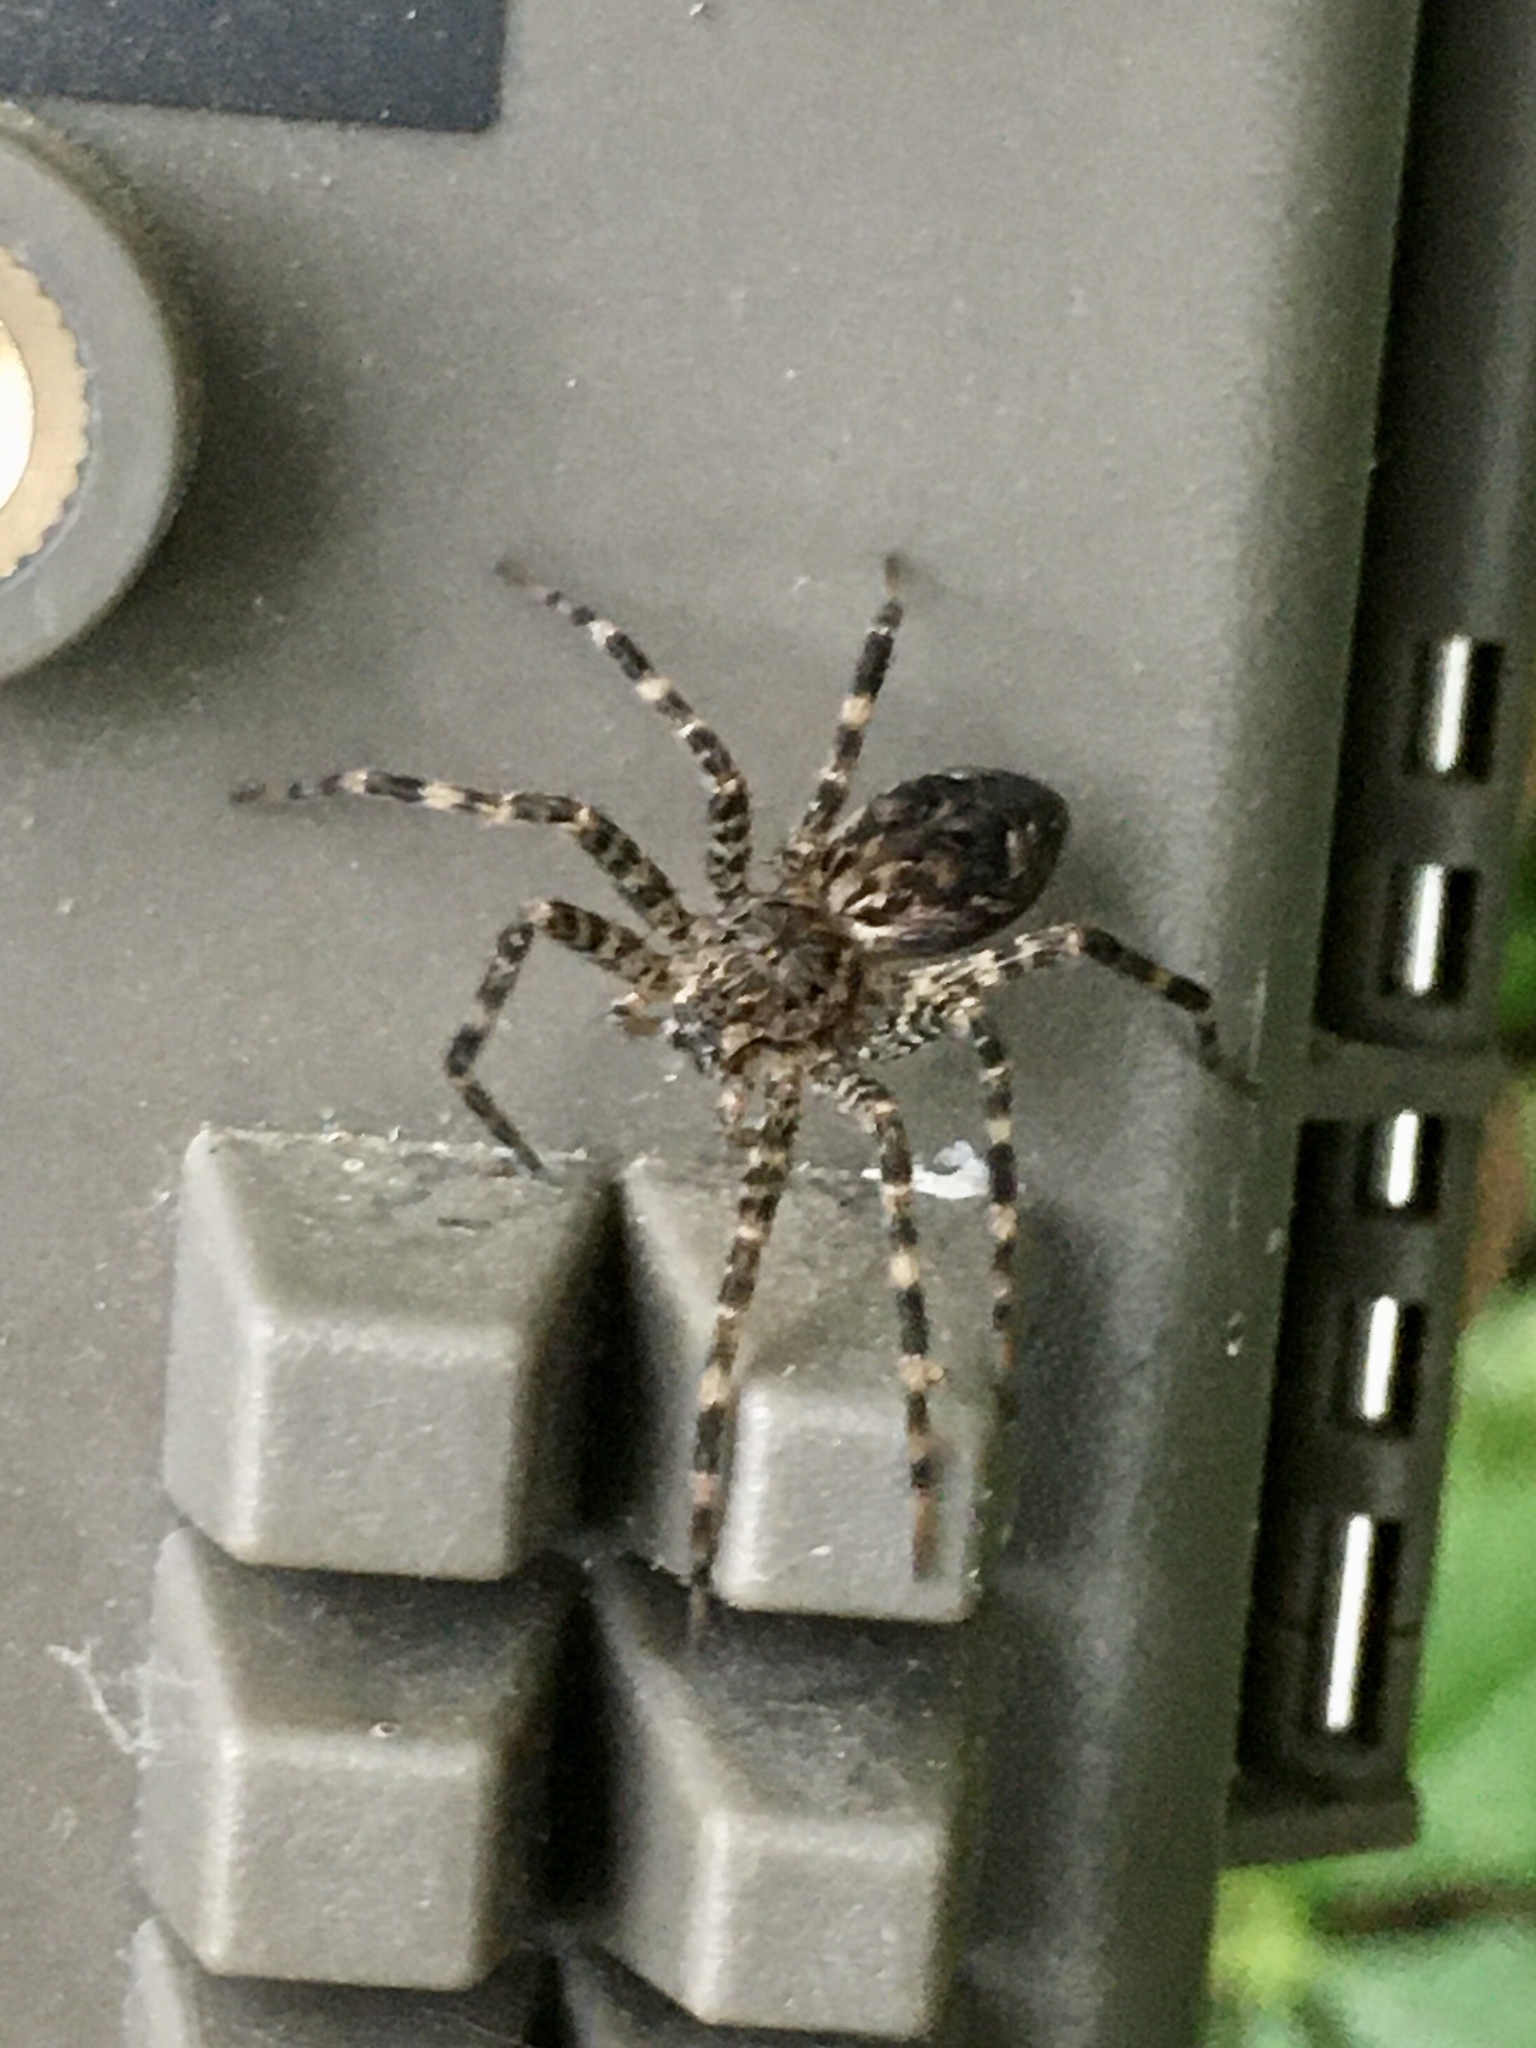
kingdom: Animalia
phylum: Arthropoda
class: Arachnida
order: Araneae
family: Pisauridae
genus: Dolomedes
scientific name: Dolomedes tenebrosus
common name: Dark fishing spider
